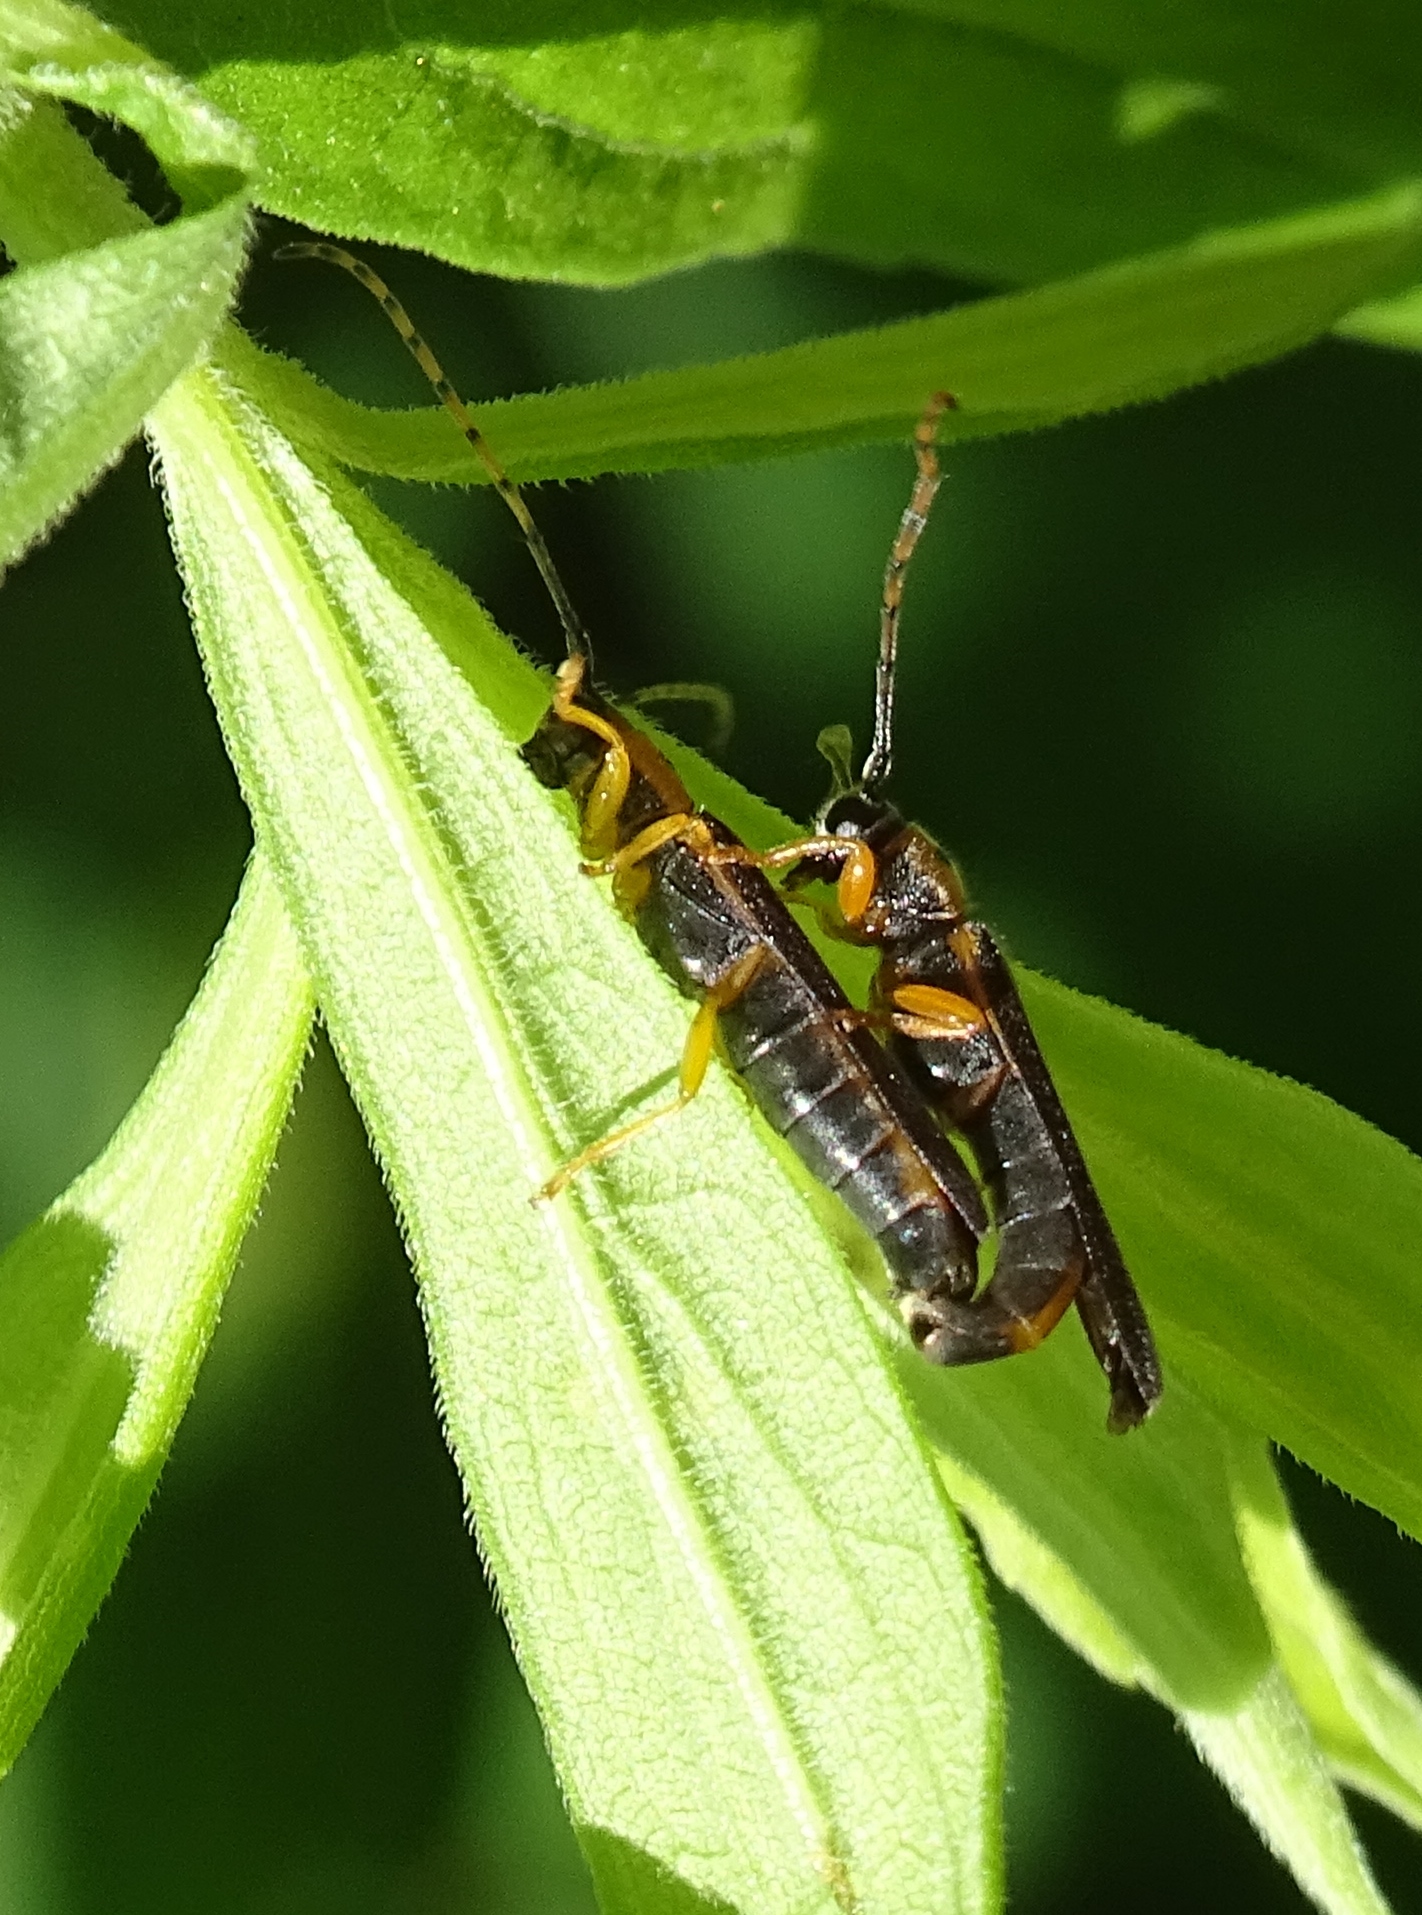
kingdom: Animalia
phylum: Arthropoda
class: Insecta
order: Coleoptera
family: Cerambycidae
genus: Oberea
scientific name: Oberea tripunctata
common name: Dogwood twig borer
